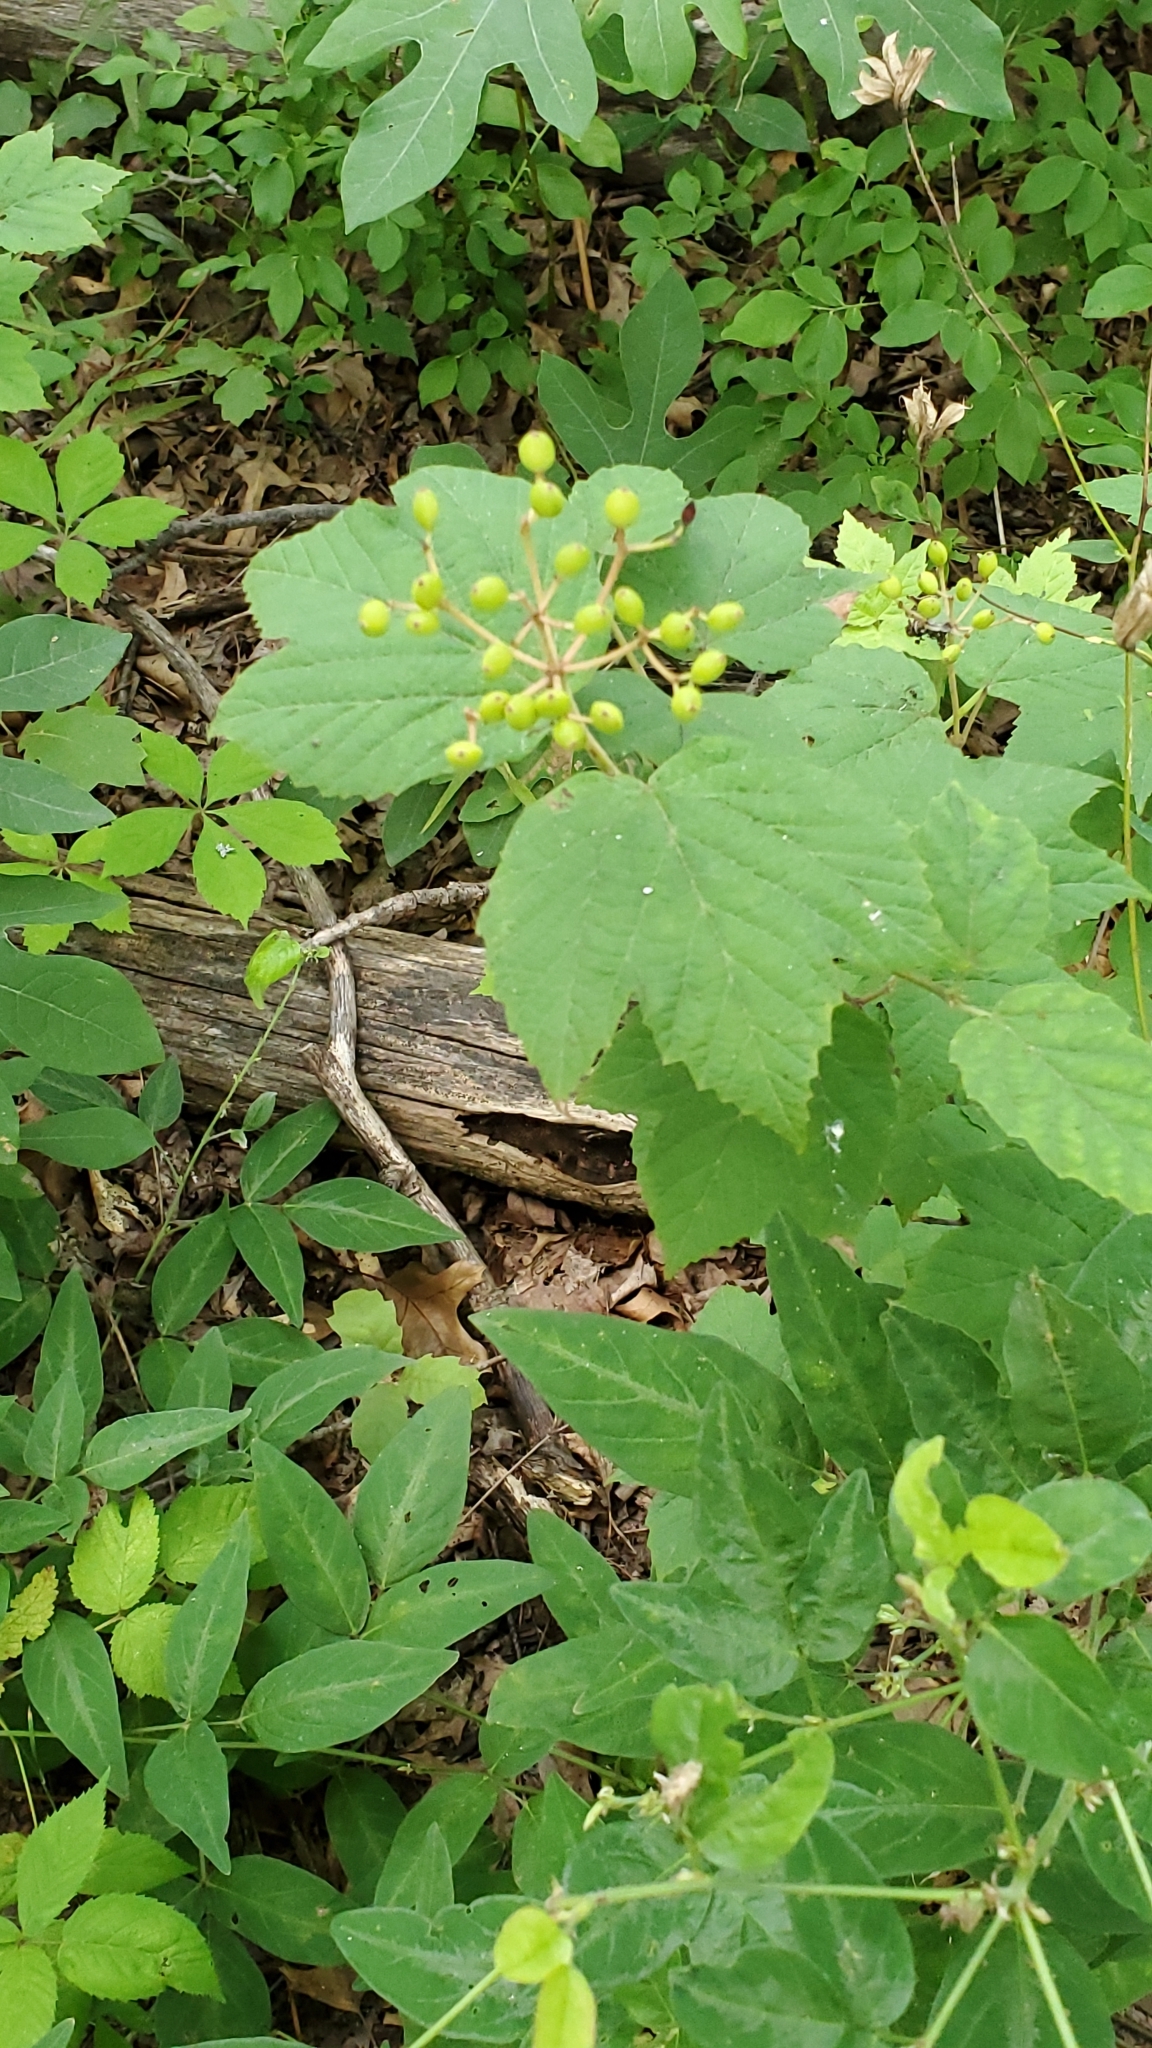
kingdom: Plantae
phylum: Tracheophyta
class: Magnoliopsida
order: Dipsacales
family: Viburnaceae
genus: Viburnum
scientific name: Viburnum acerifolium
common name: Dockmackie
